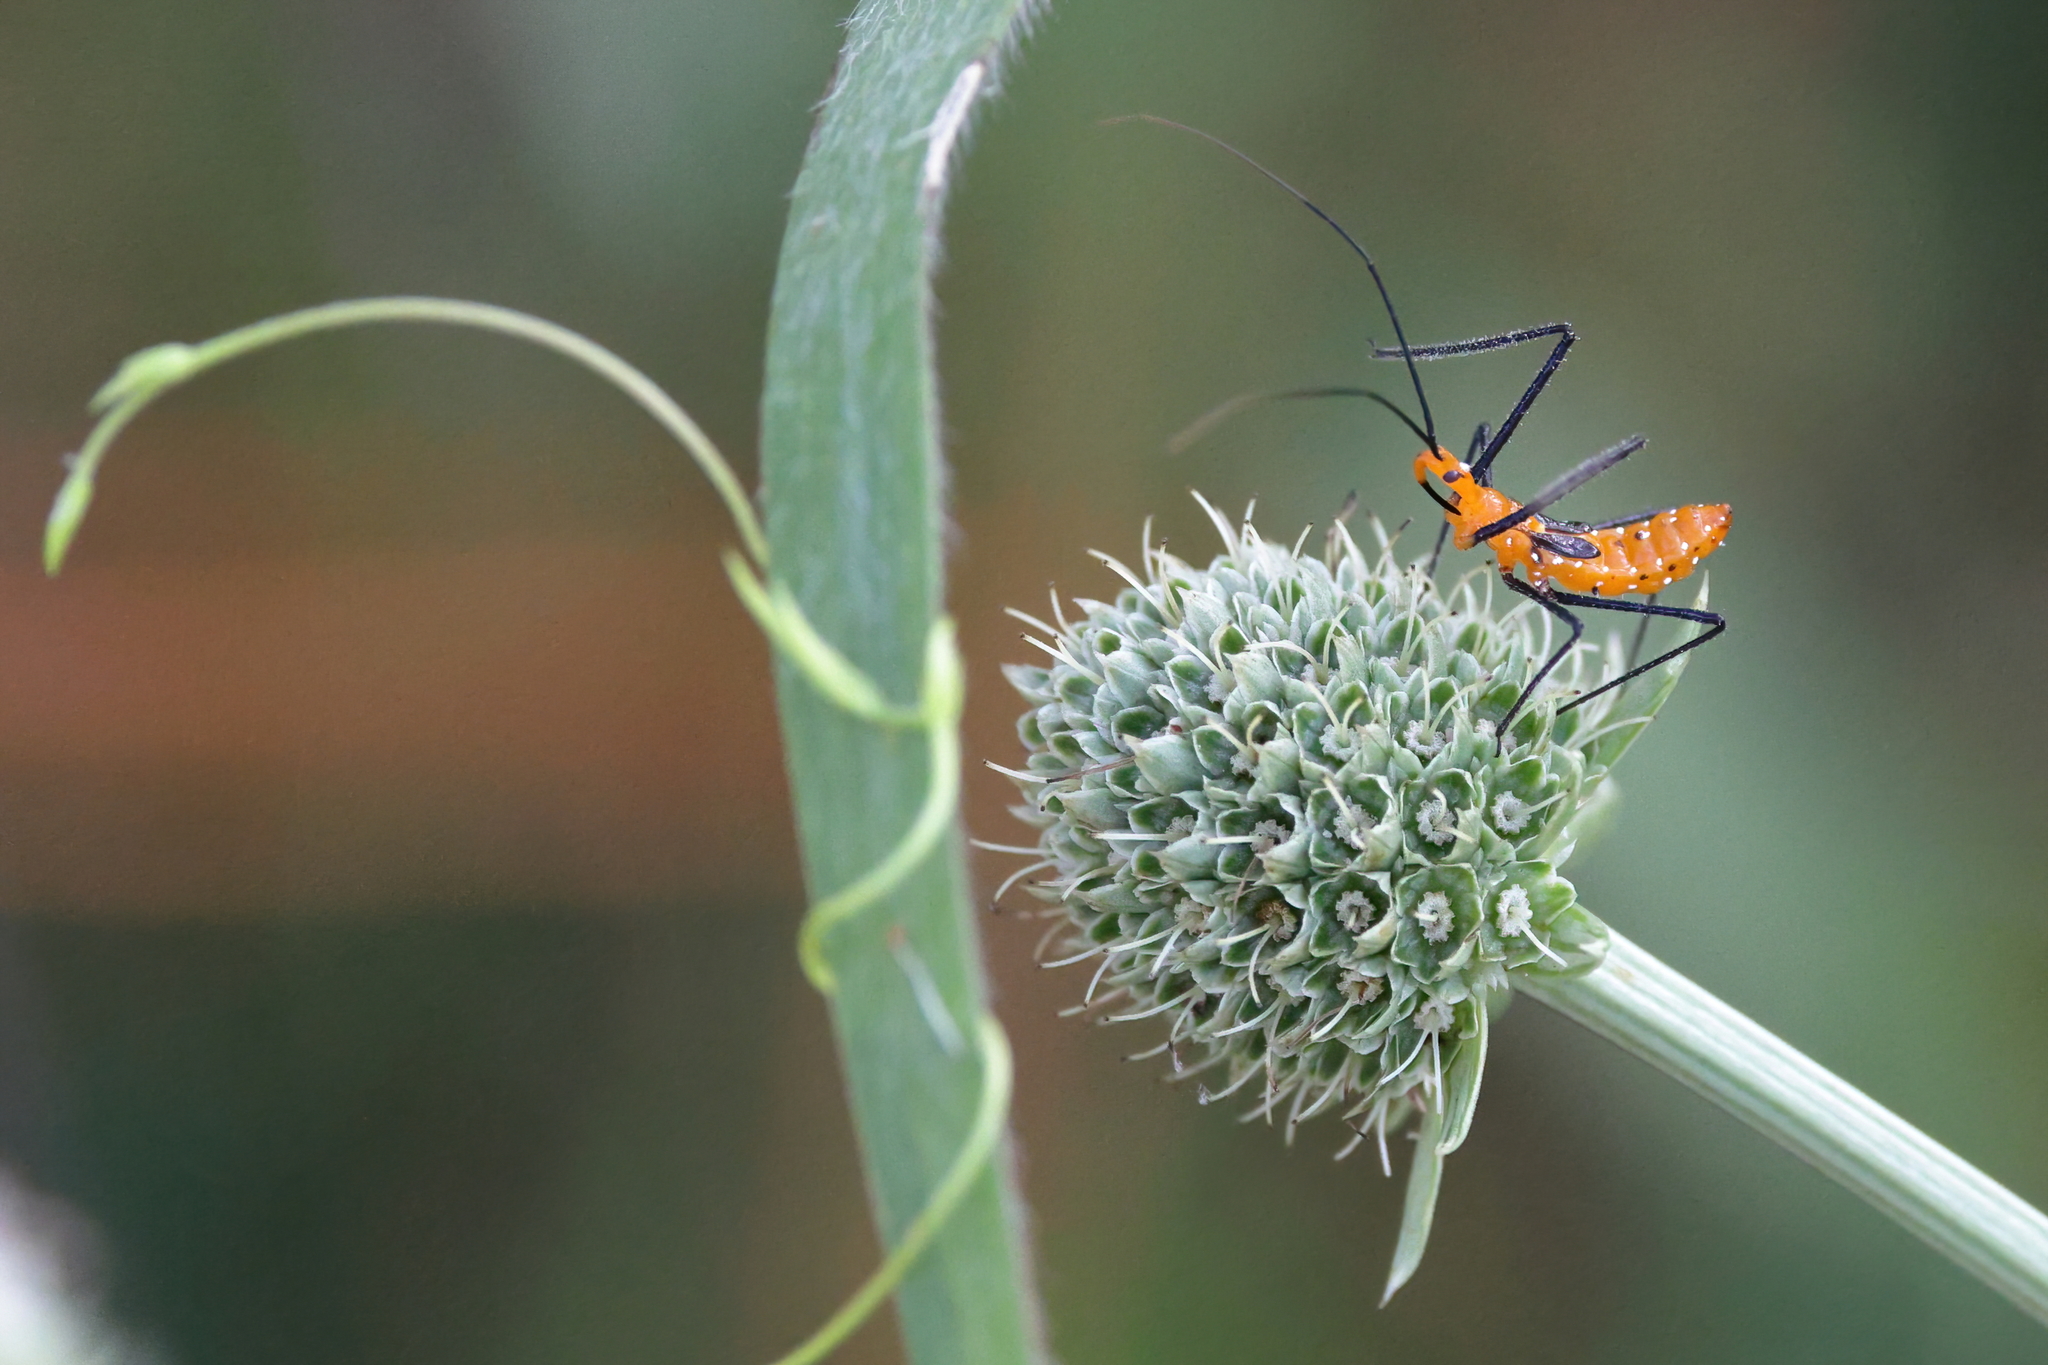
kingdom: Animalia
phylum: Arthropoda
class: Insecta
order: Hemiptera
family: Reduviidae
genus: Zelus
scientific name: Zelus longipes
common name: Milkweed assassin bug
